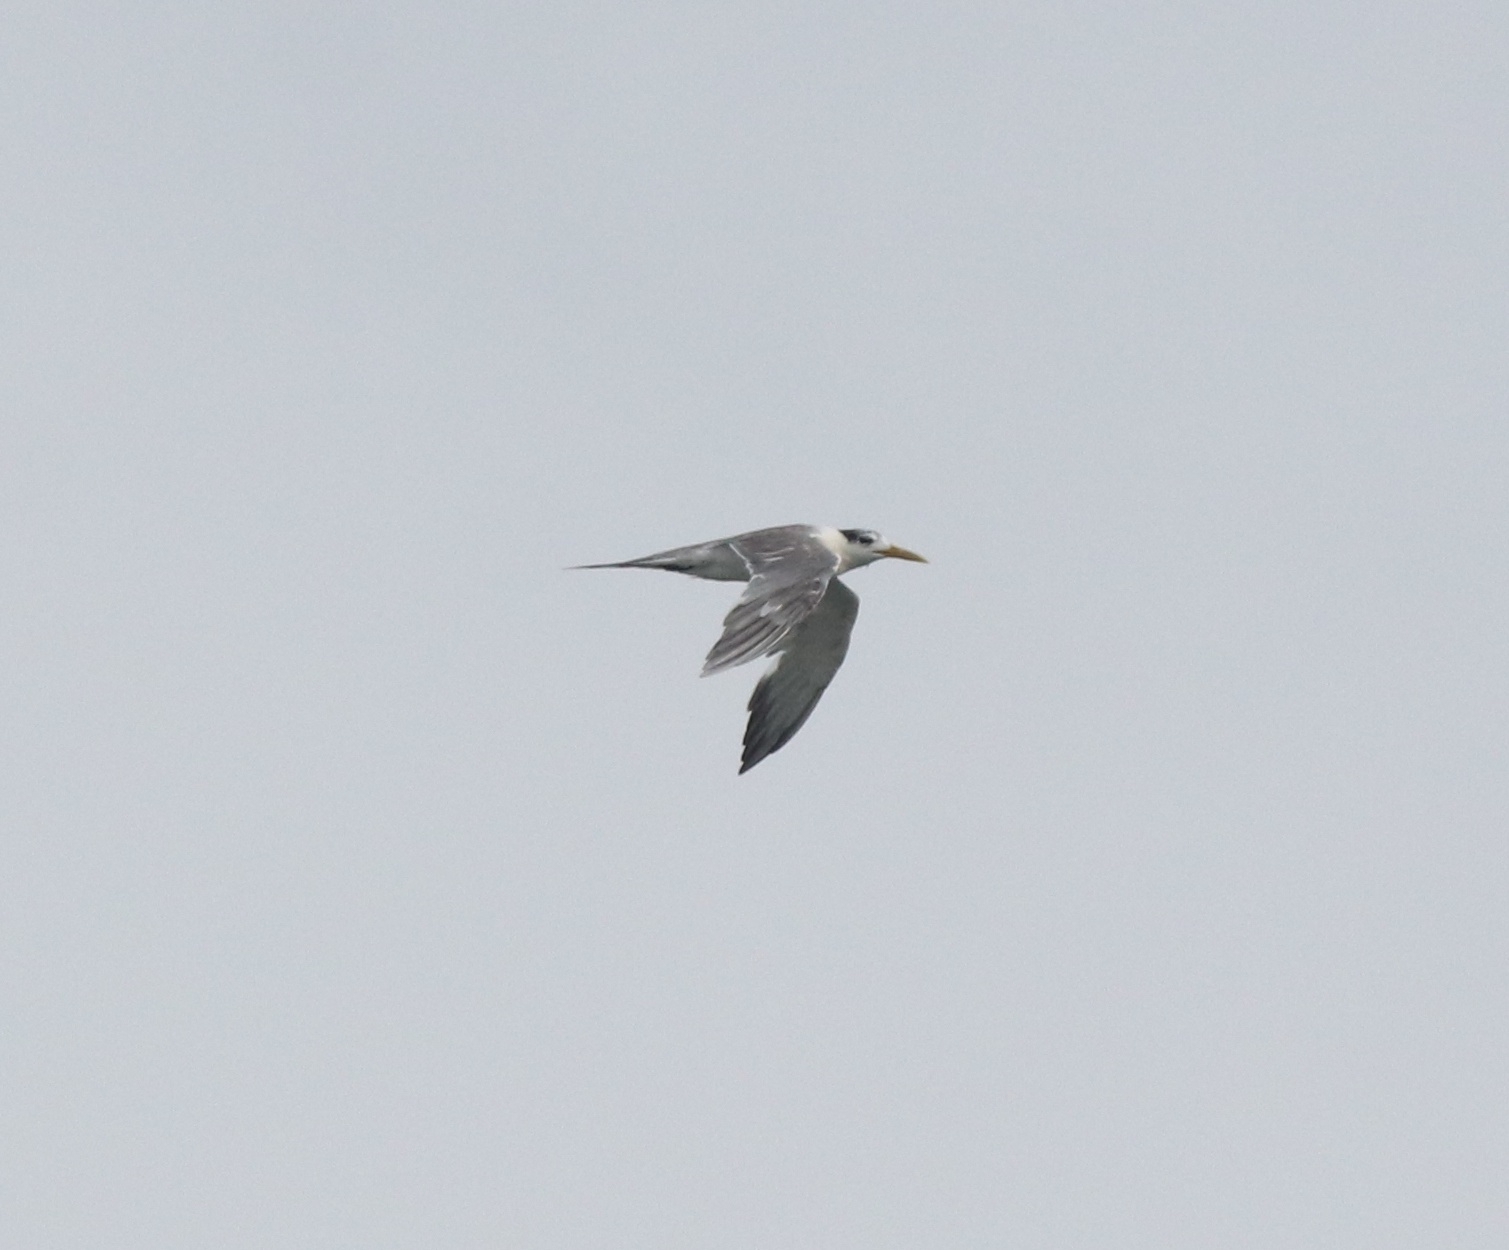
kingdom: Animalia
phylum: Chordata
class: Aves
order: Charadriiformes
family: Laridae
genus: Thalasseus
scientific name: Thalasseus bergii
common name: Greater crested tern
